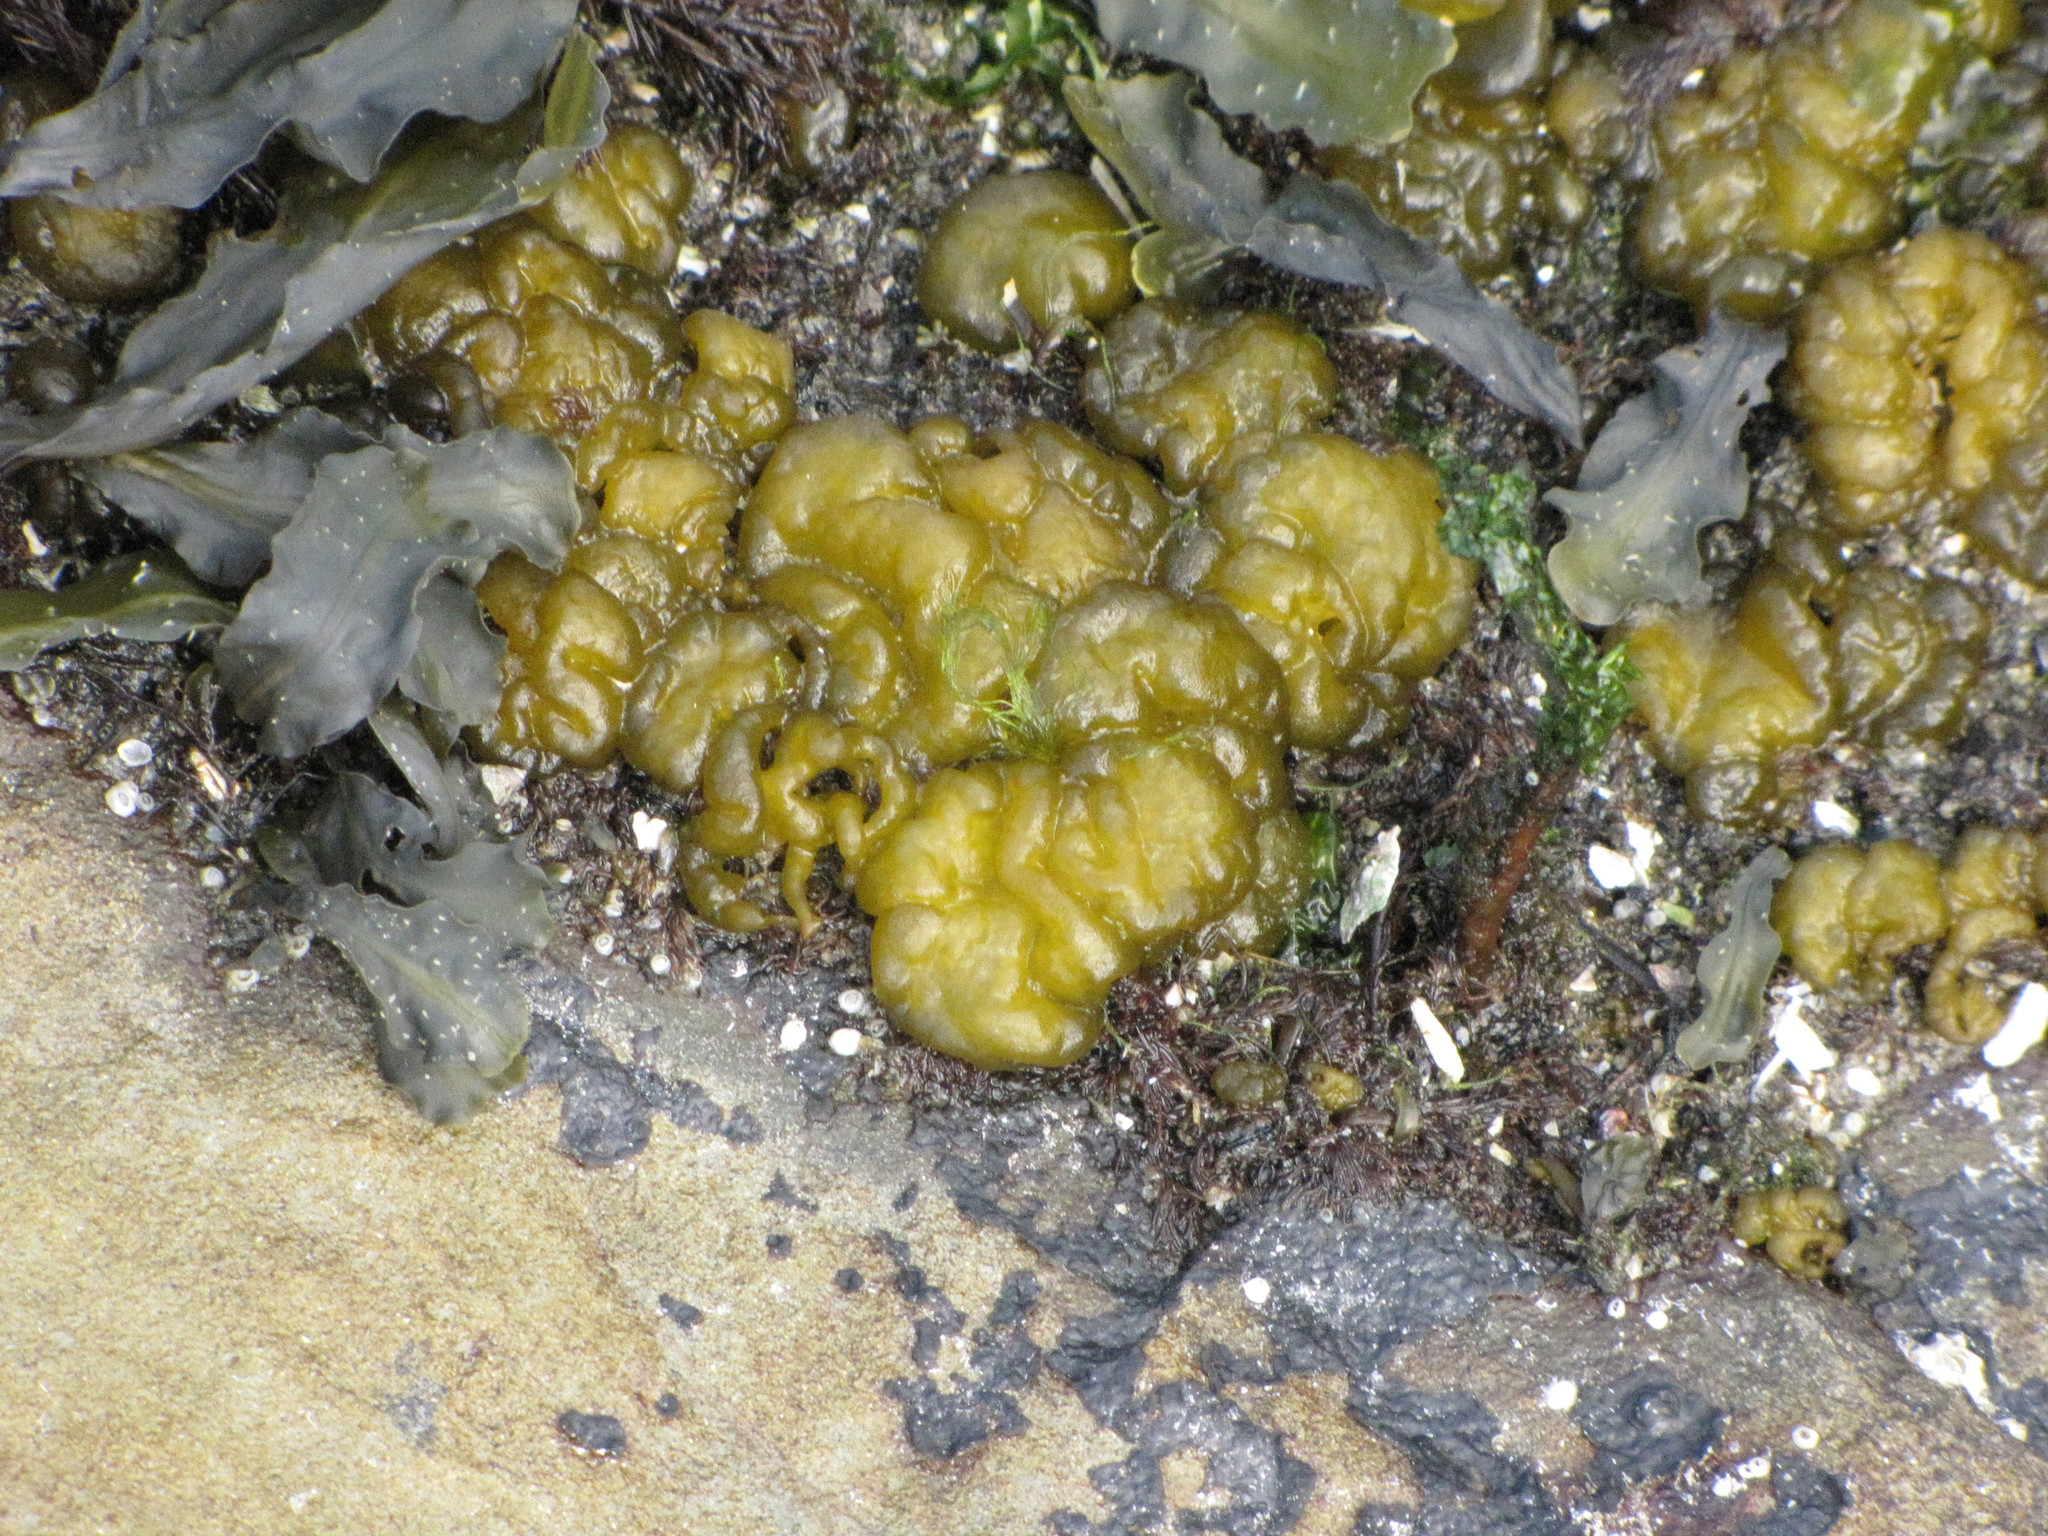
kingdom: Chromista
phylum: Ochrophyta
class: Phaeophyceae
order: Ectocarpales
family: Chordariaceae
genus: Leathesia
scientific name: Leathesia marina
